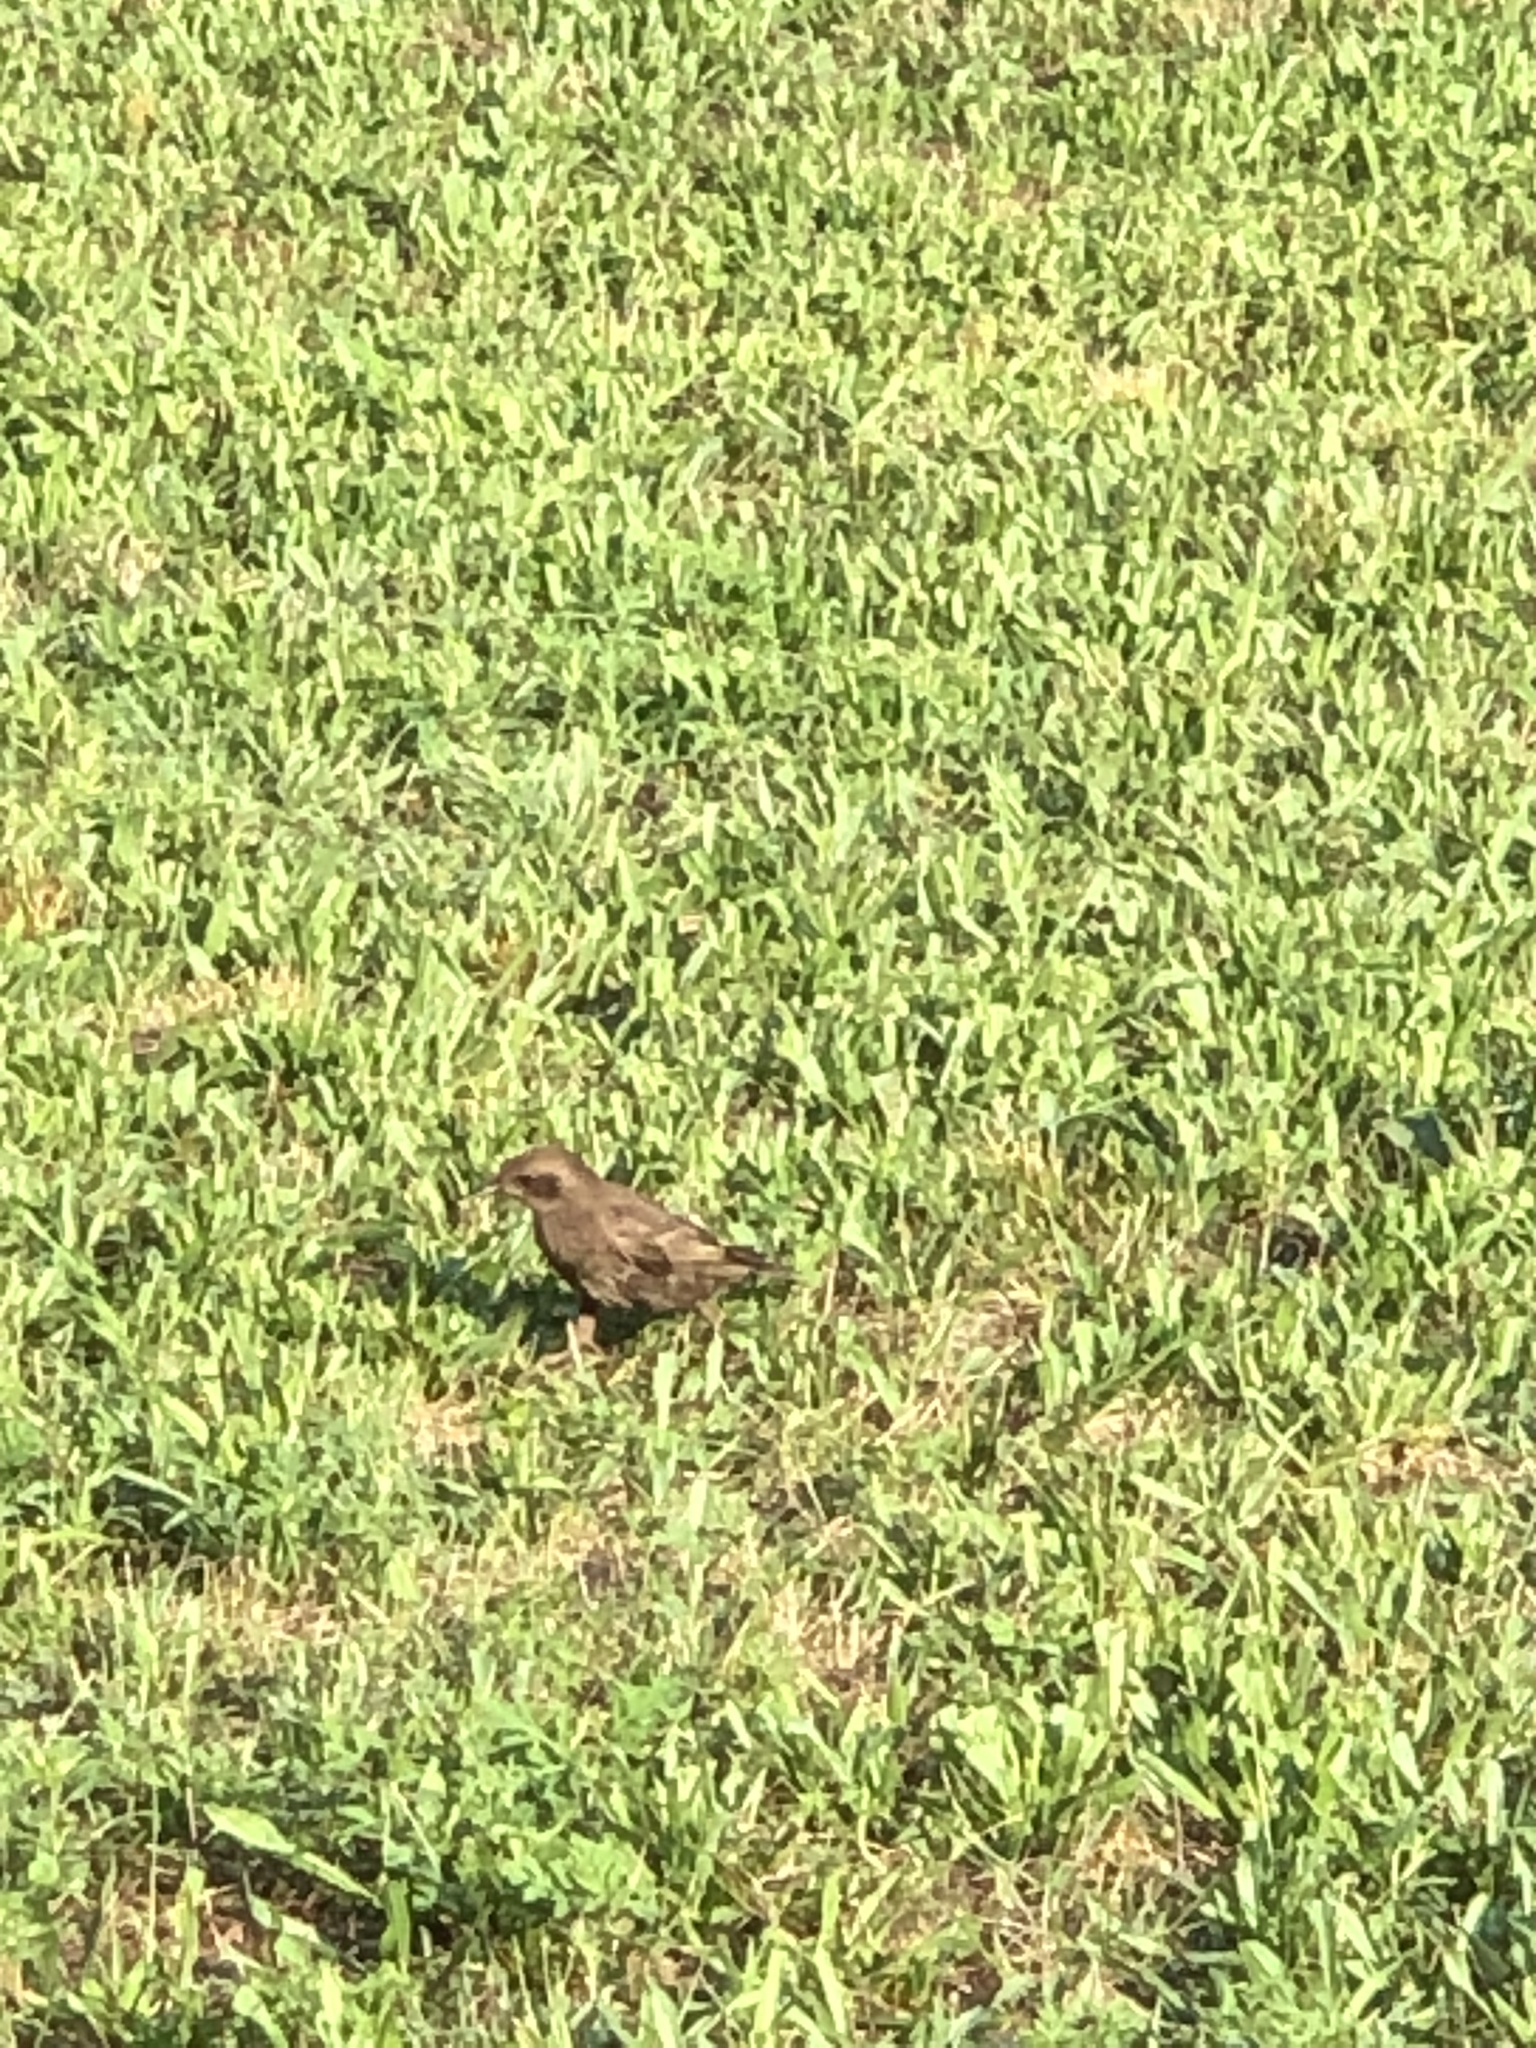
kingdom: Animalia
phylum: Chordata
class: Aves
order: Passeriformes
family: Icteridae
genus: Molothrus
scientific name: Molothrus ater
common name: Brown-headed cowbird
